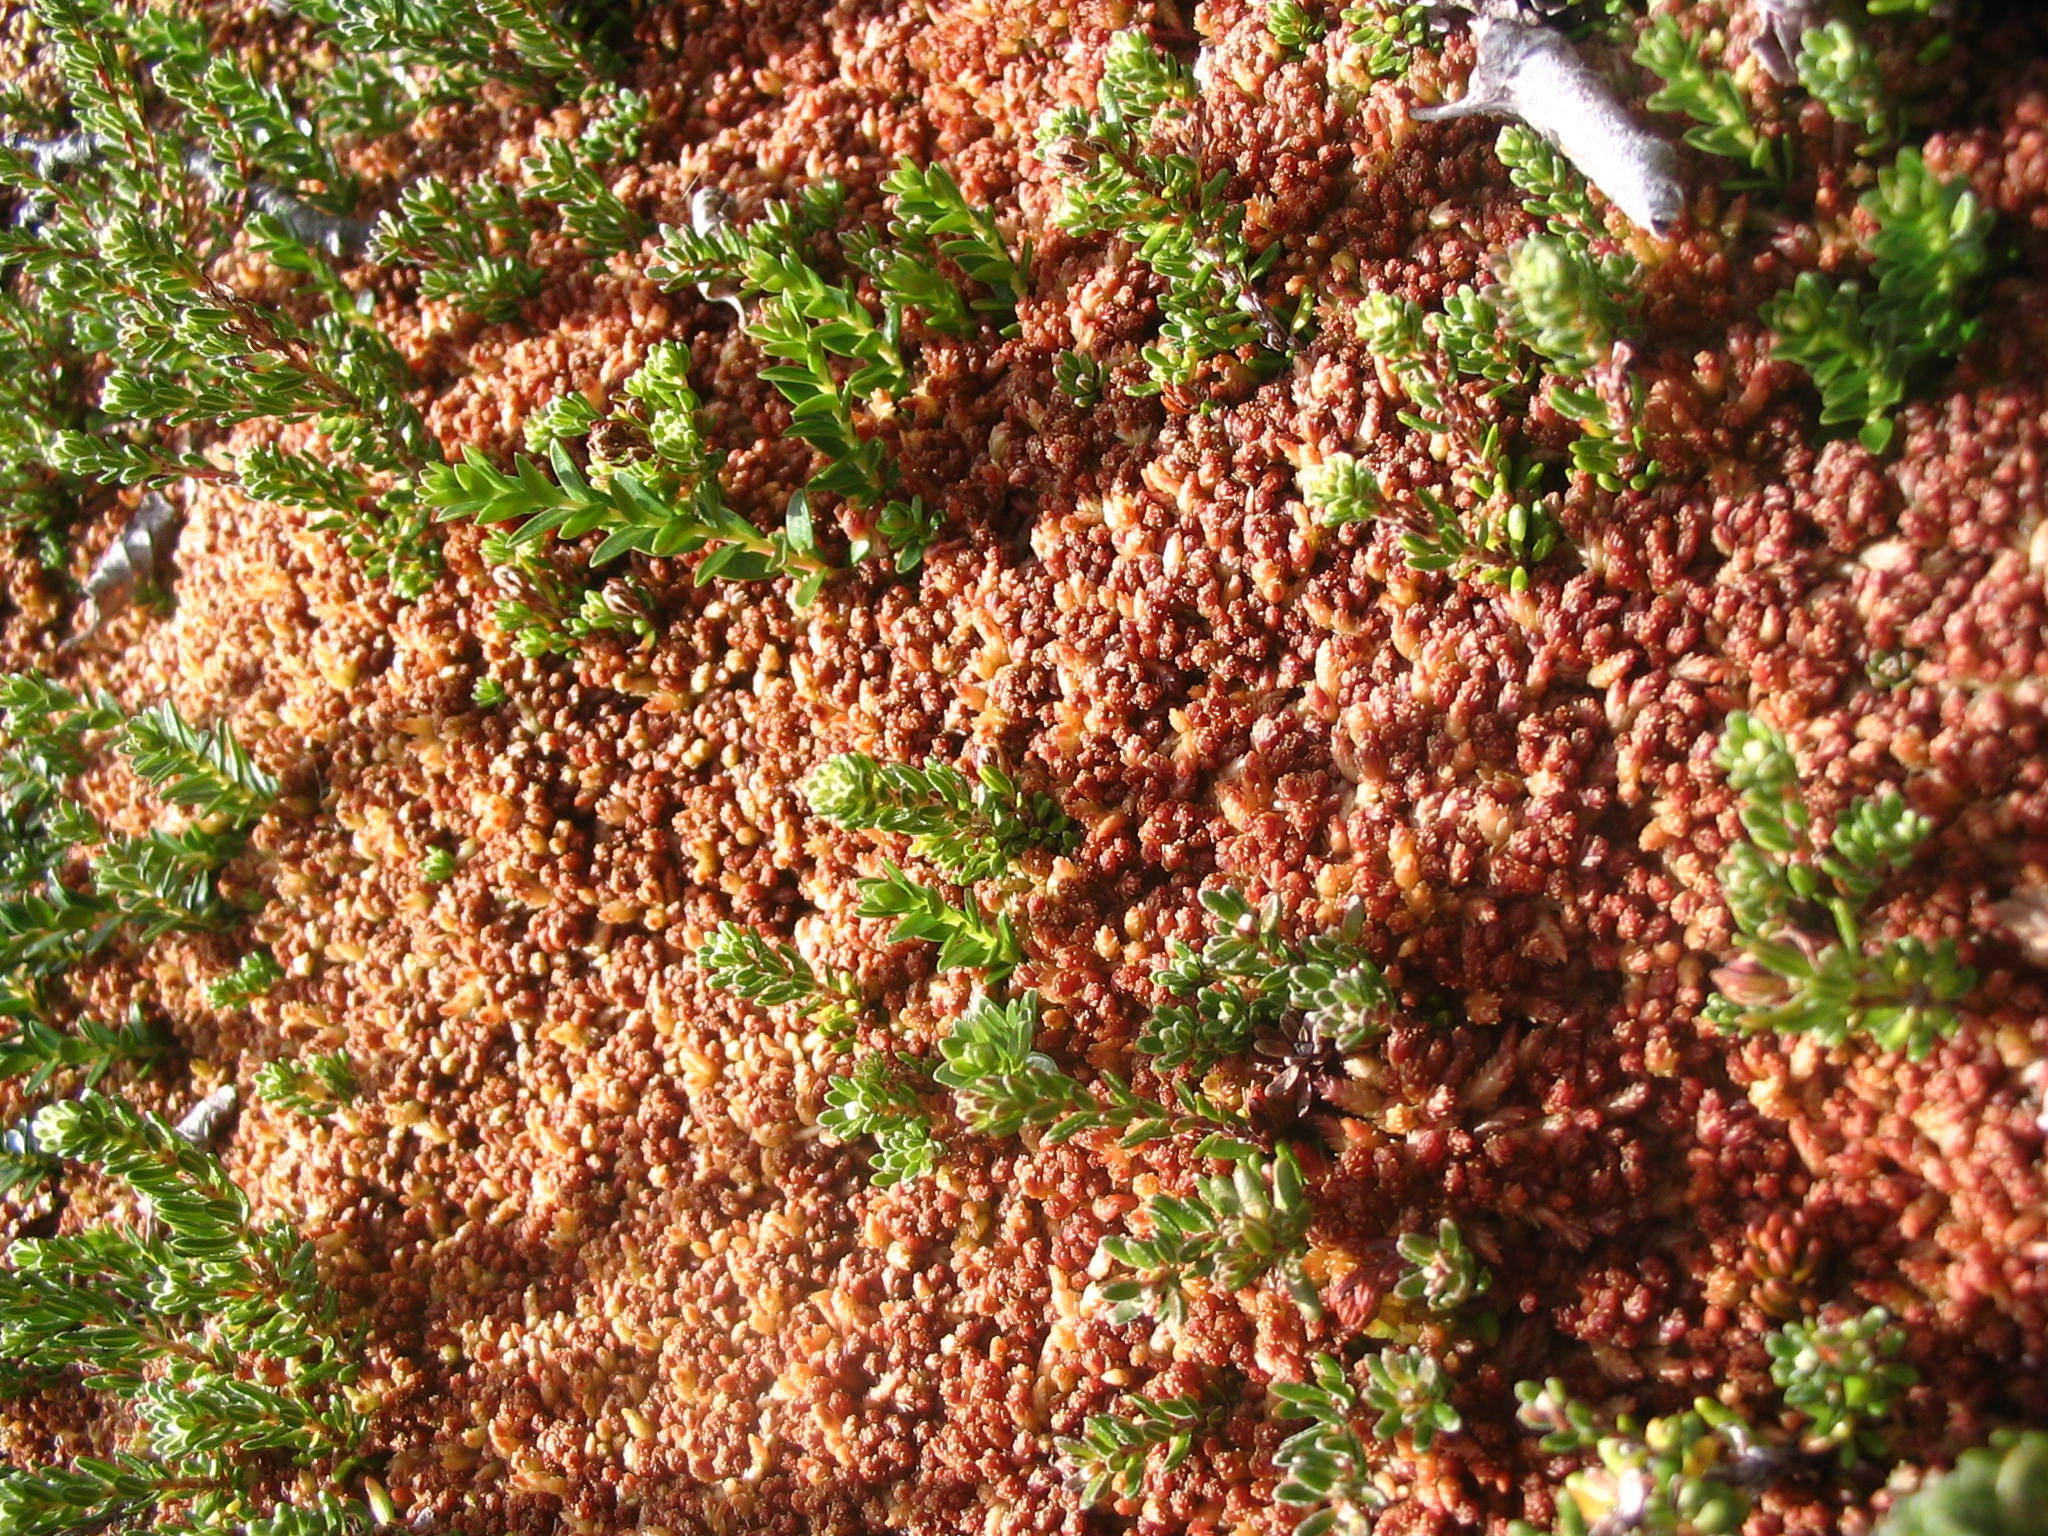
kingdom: Plantae
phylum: Bryophyta
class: Sphagnopsida
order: Sphagnales
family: Sphagnaceae
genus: Sphagnum
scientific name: Sphagnum magellanicum
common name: Magellan's peat moss
